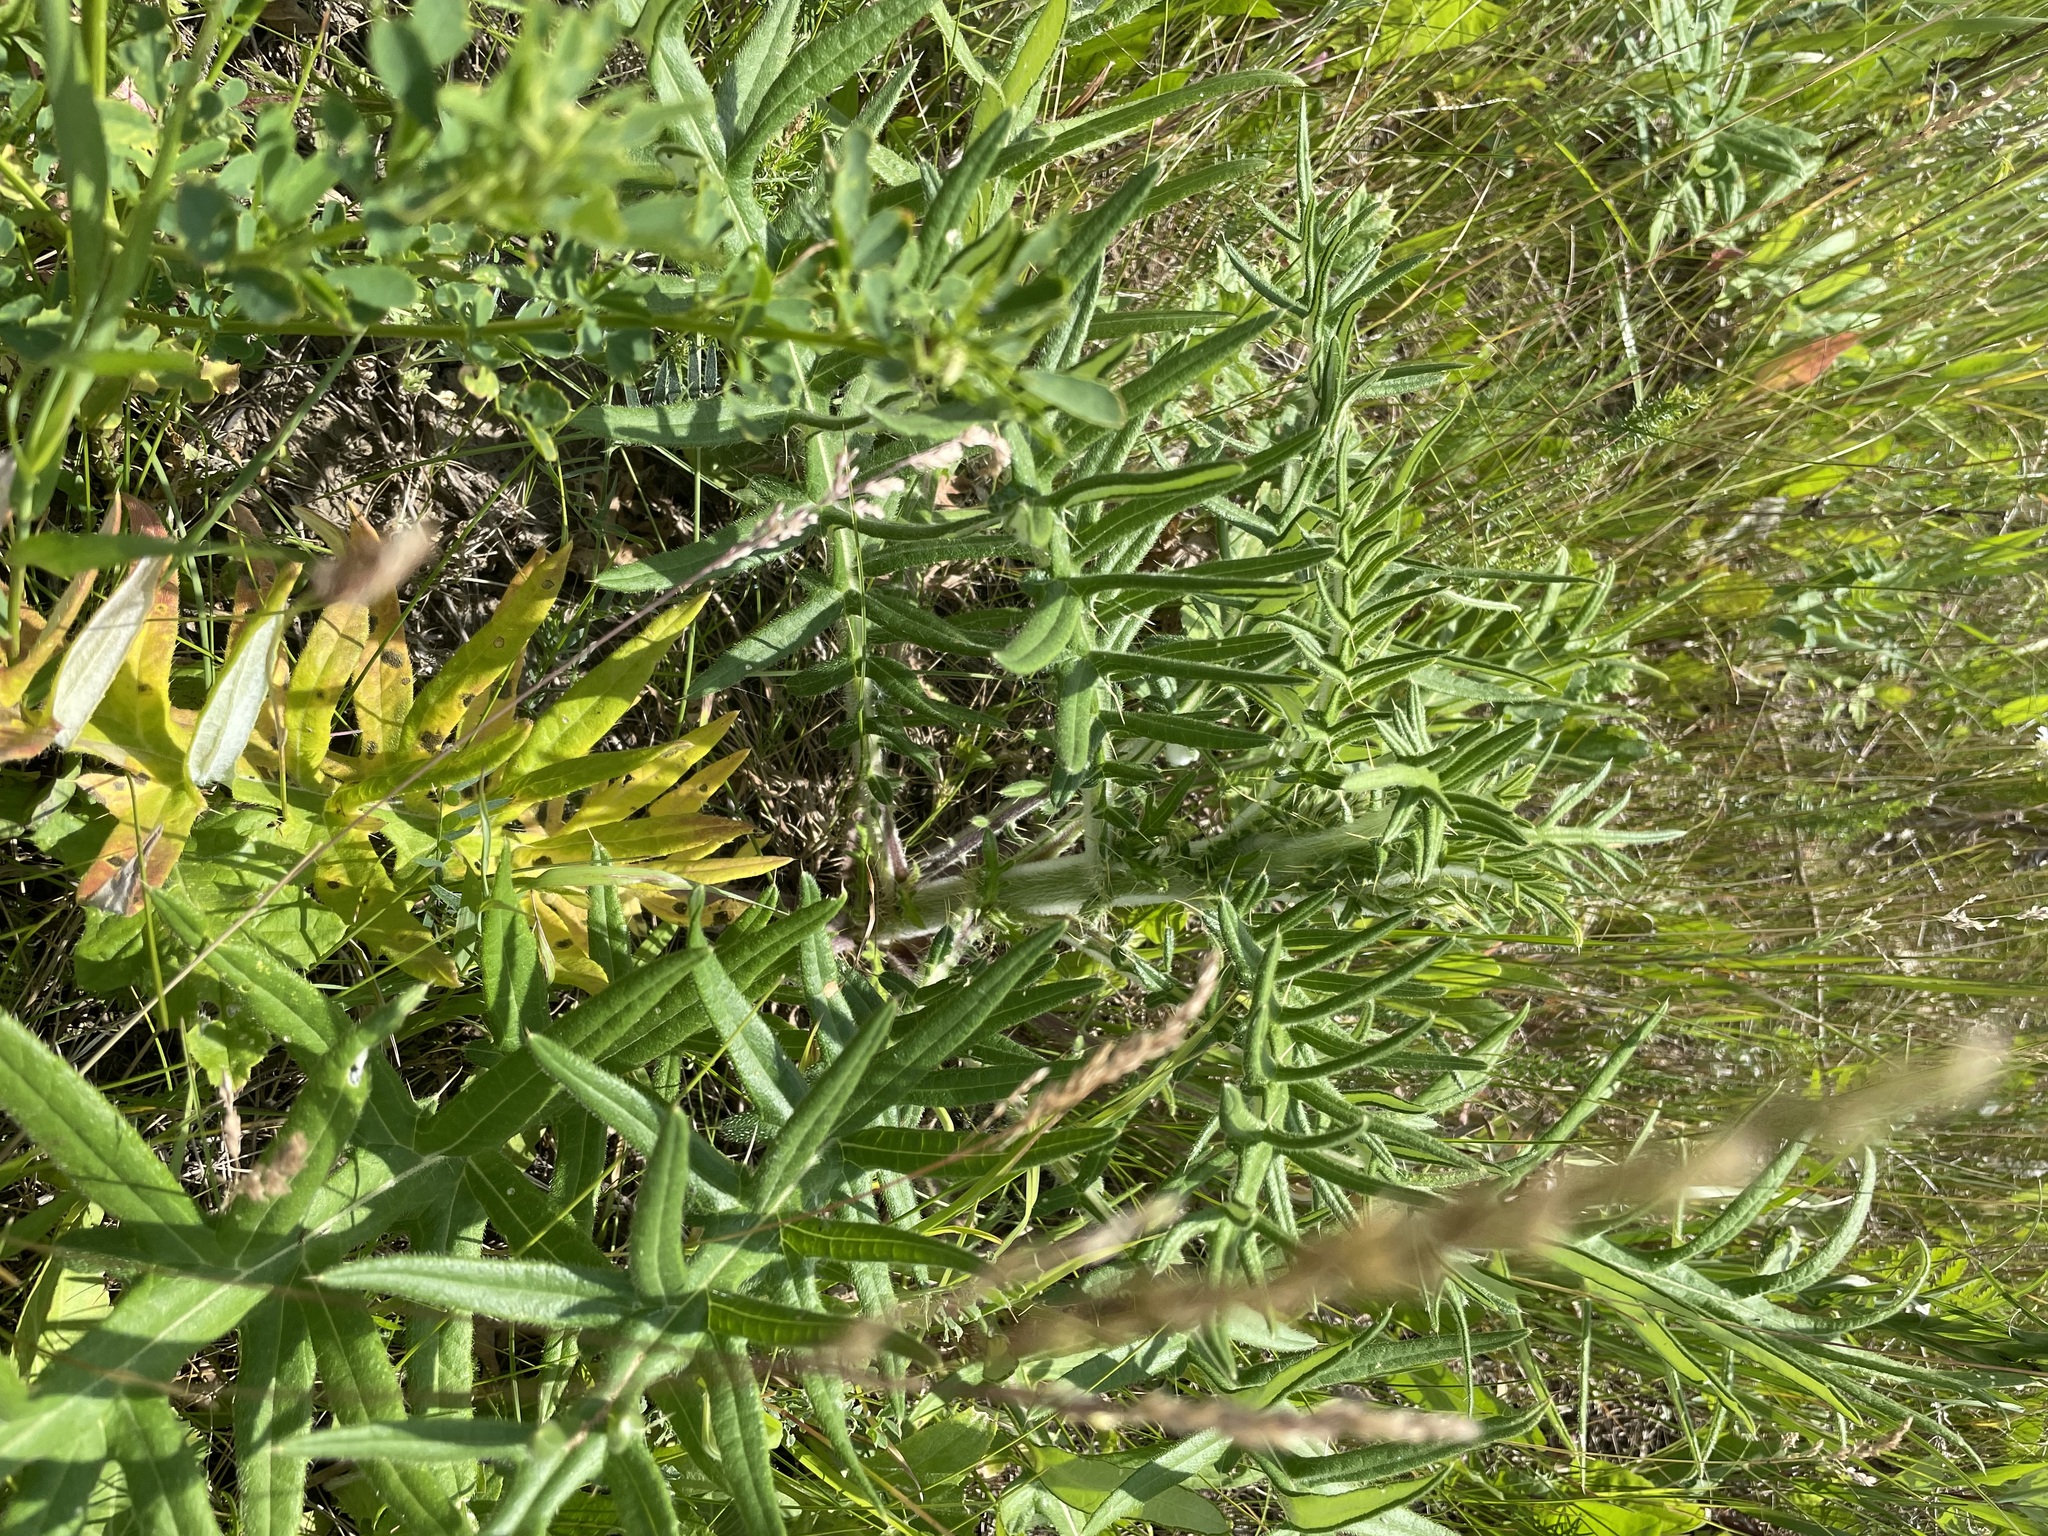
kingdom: Plantae
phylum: Tracheophyta
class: Magnoliopsida
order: Asterales
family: Asteraceae
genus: Lophiolepis
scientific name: Lophiolepis decussata
